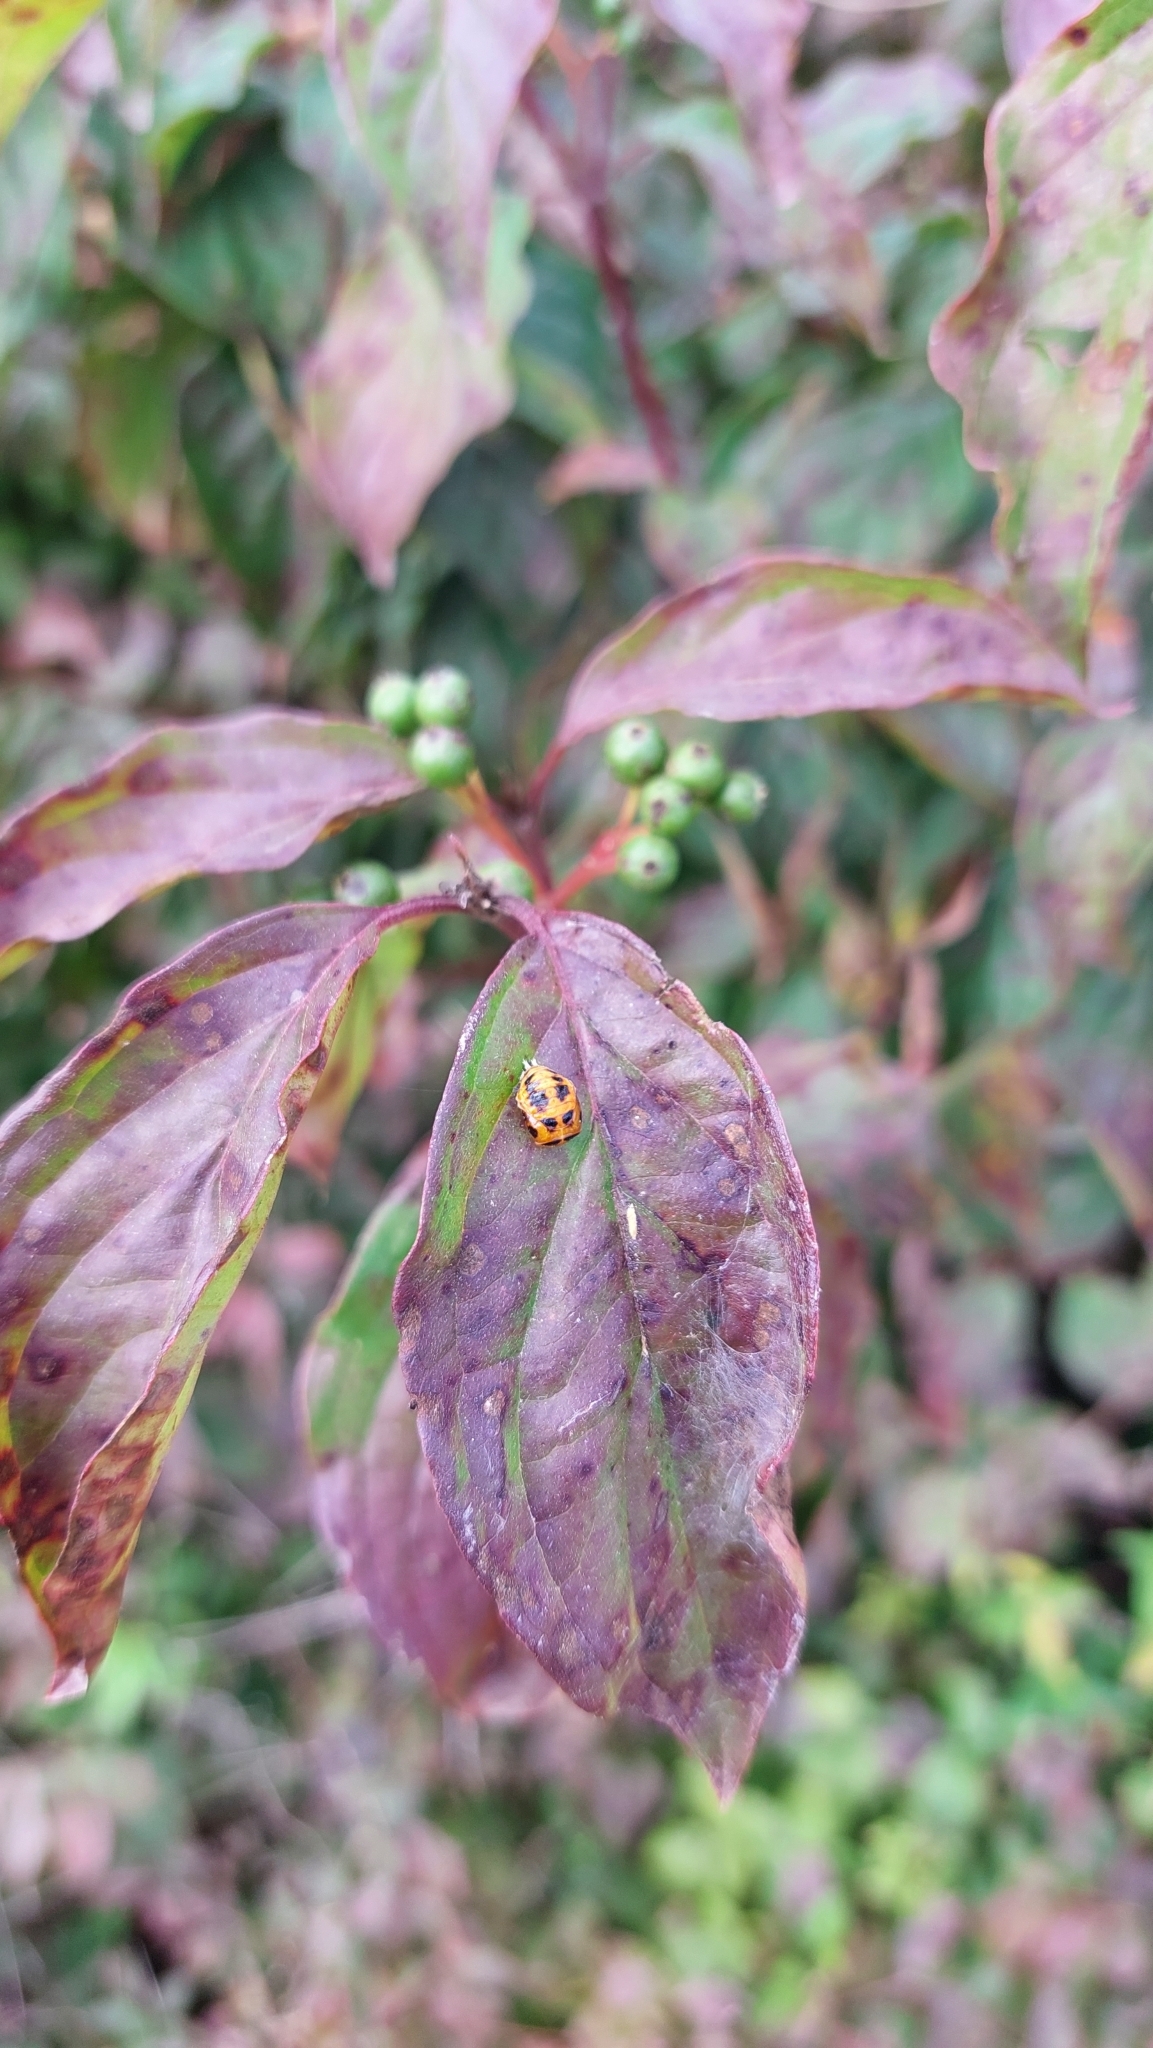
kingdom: Animalia
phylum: Arthropoda
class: Insecta
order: Coleoptera
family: Coccinellidae
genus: Harmonia
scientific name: Harmonia axyridis
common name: Harlequin ladybird
